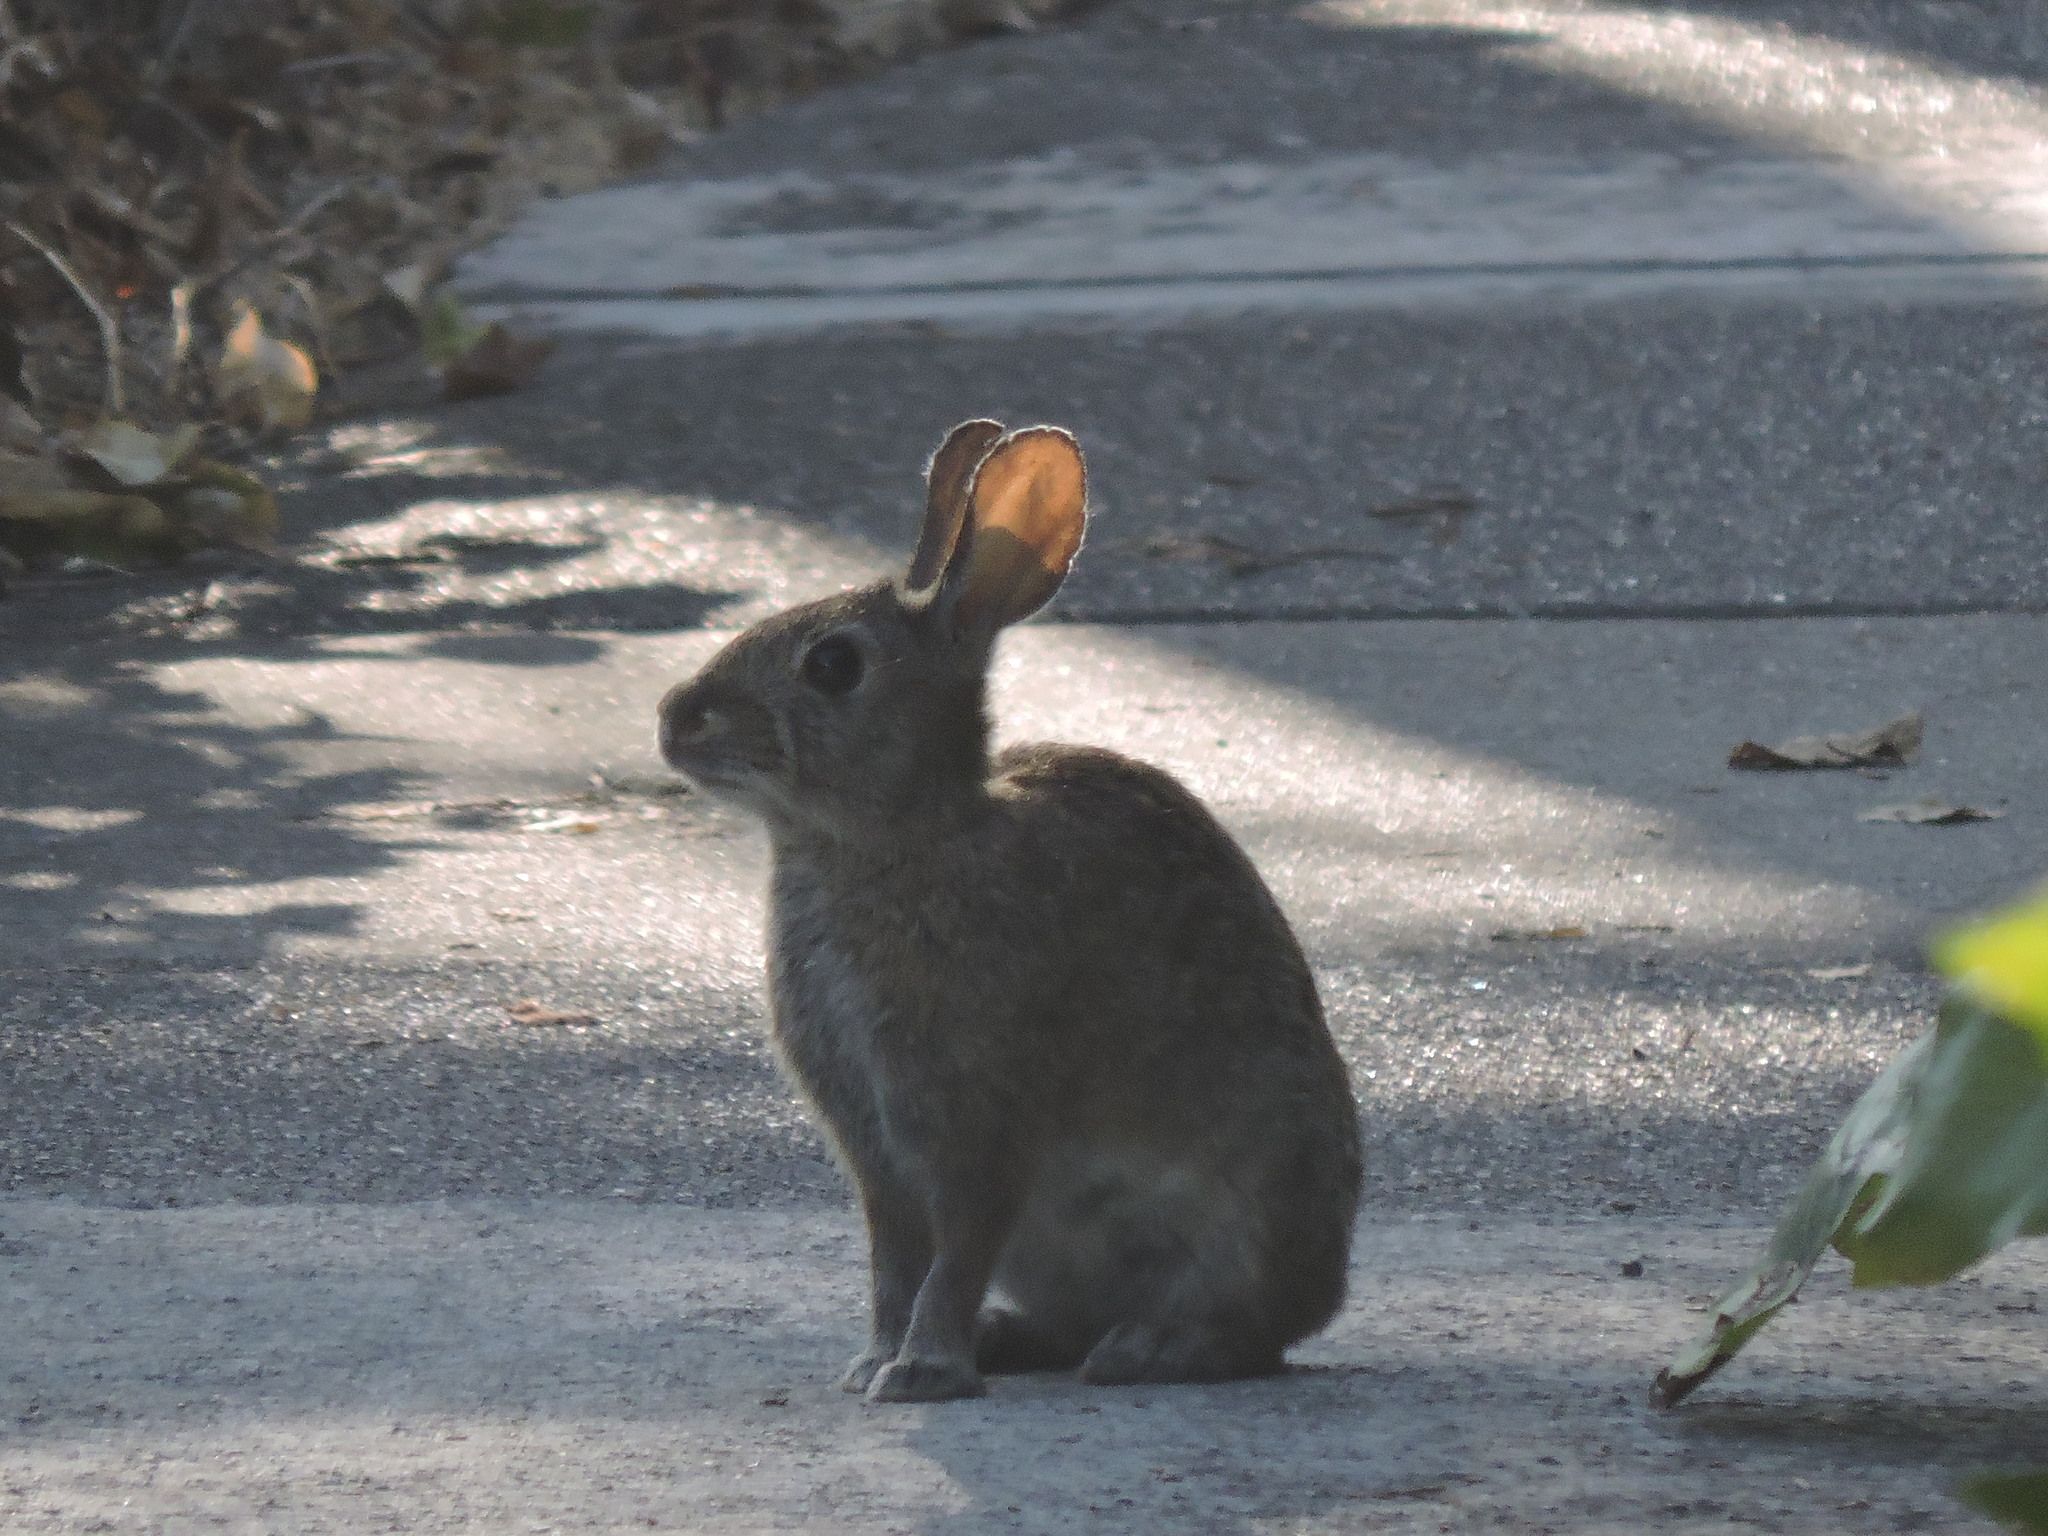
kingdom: Animalia
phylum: Chordata
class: Mammalia
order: Lagomorpha
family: Leporidae
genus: Sylvilagus
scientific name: Sylvilagus bachmani
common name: Brush rabbit
